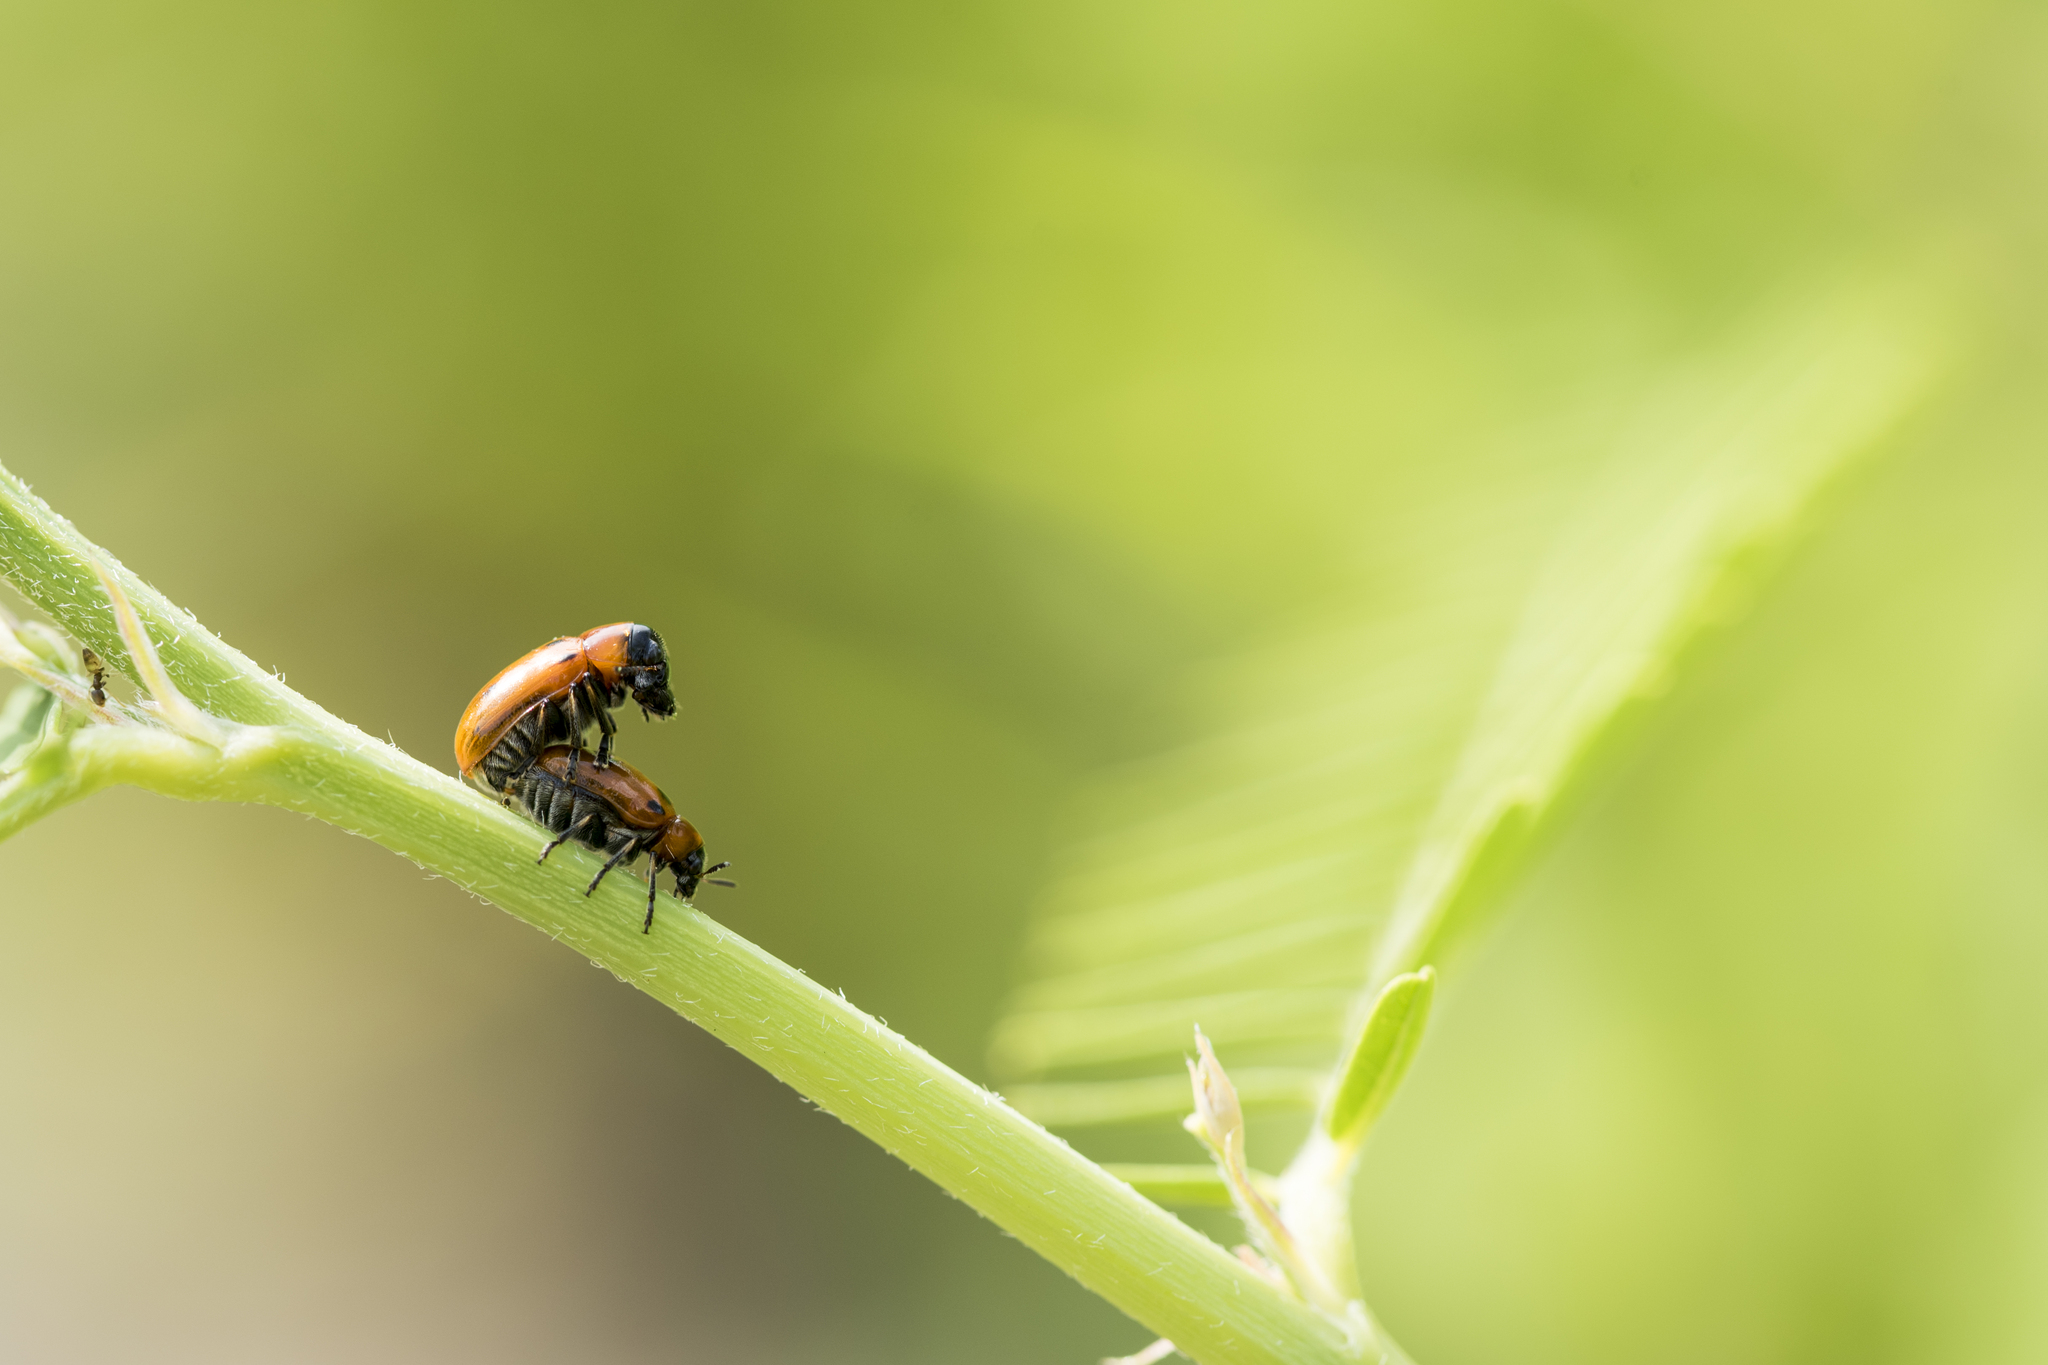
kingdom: Animalia
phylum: Arthropoda
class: Insecta
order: Coleoptera
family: Chrysomelidae
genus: Coptocephala
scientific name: Coptocephala
